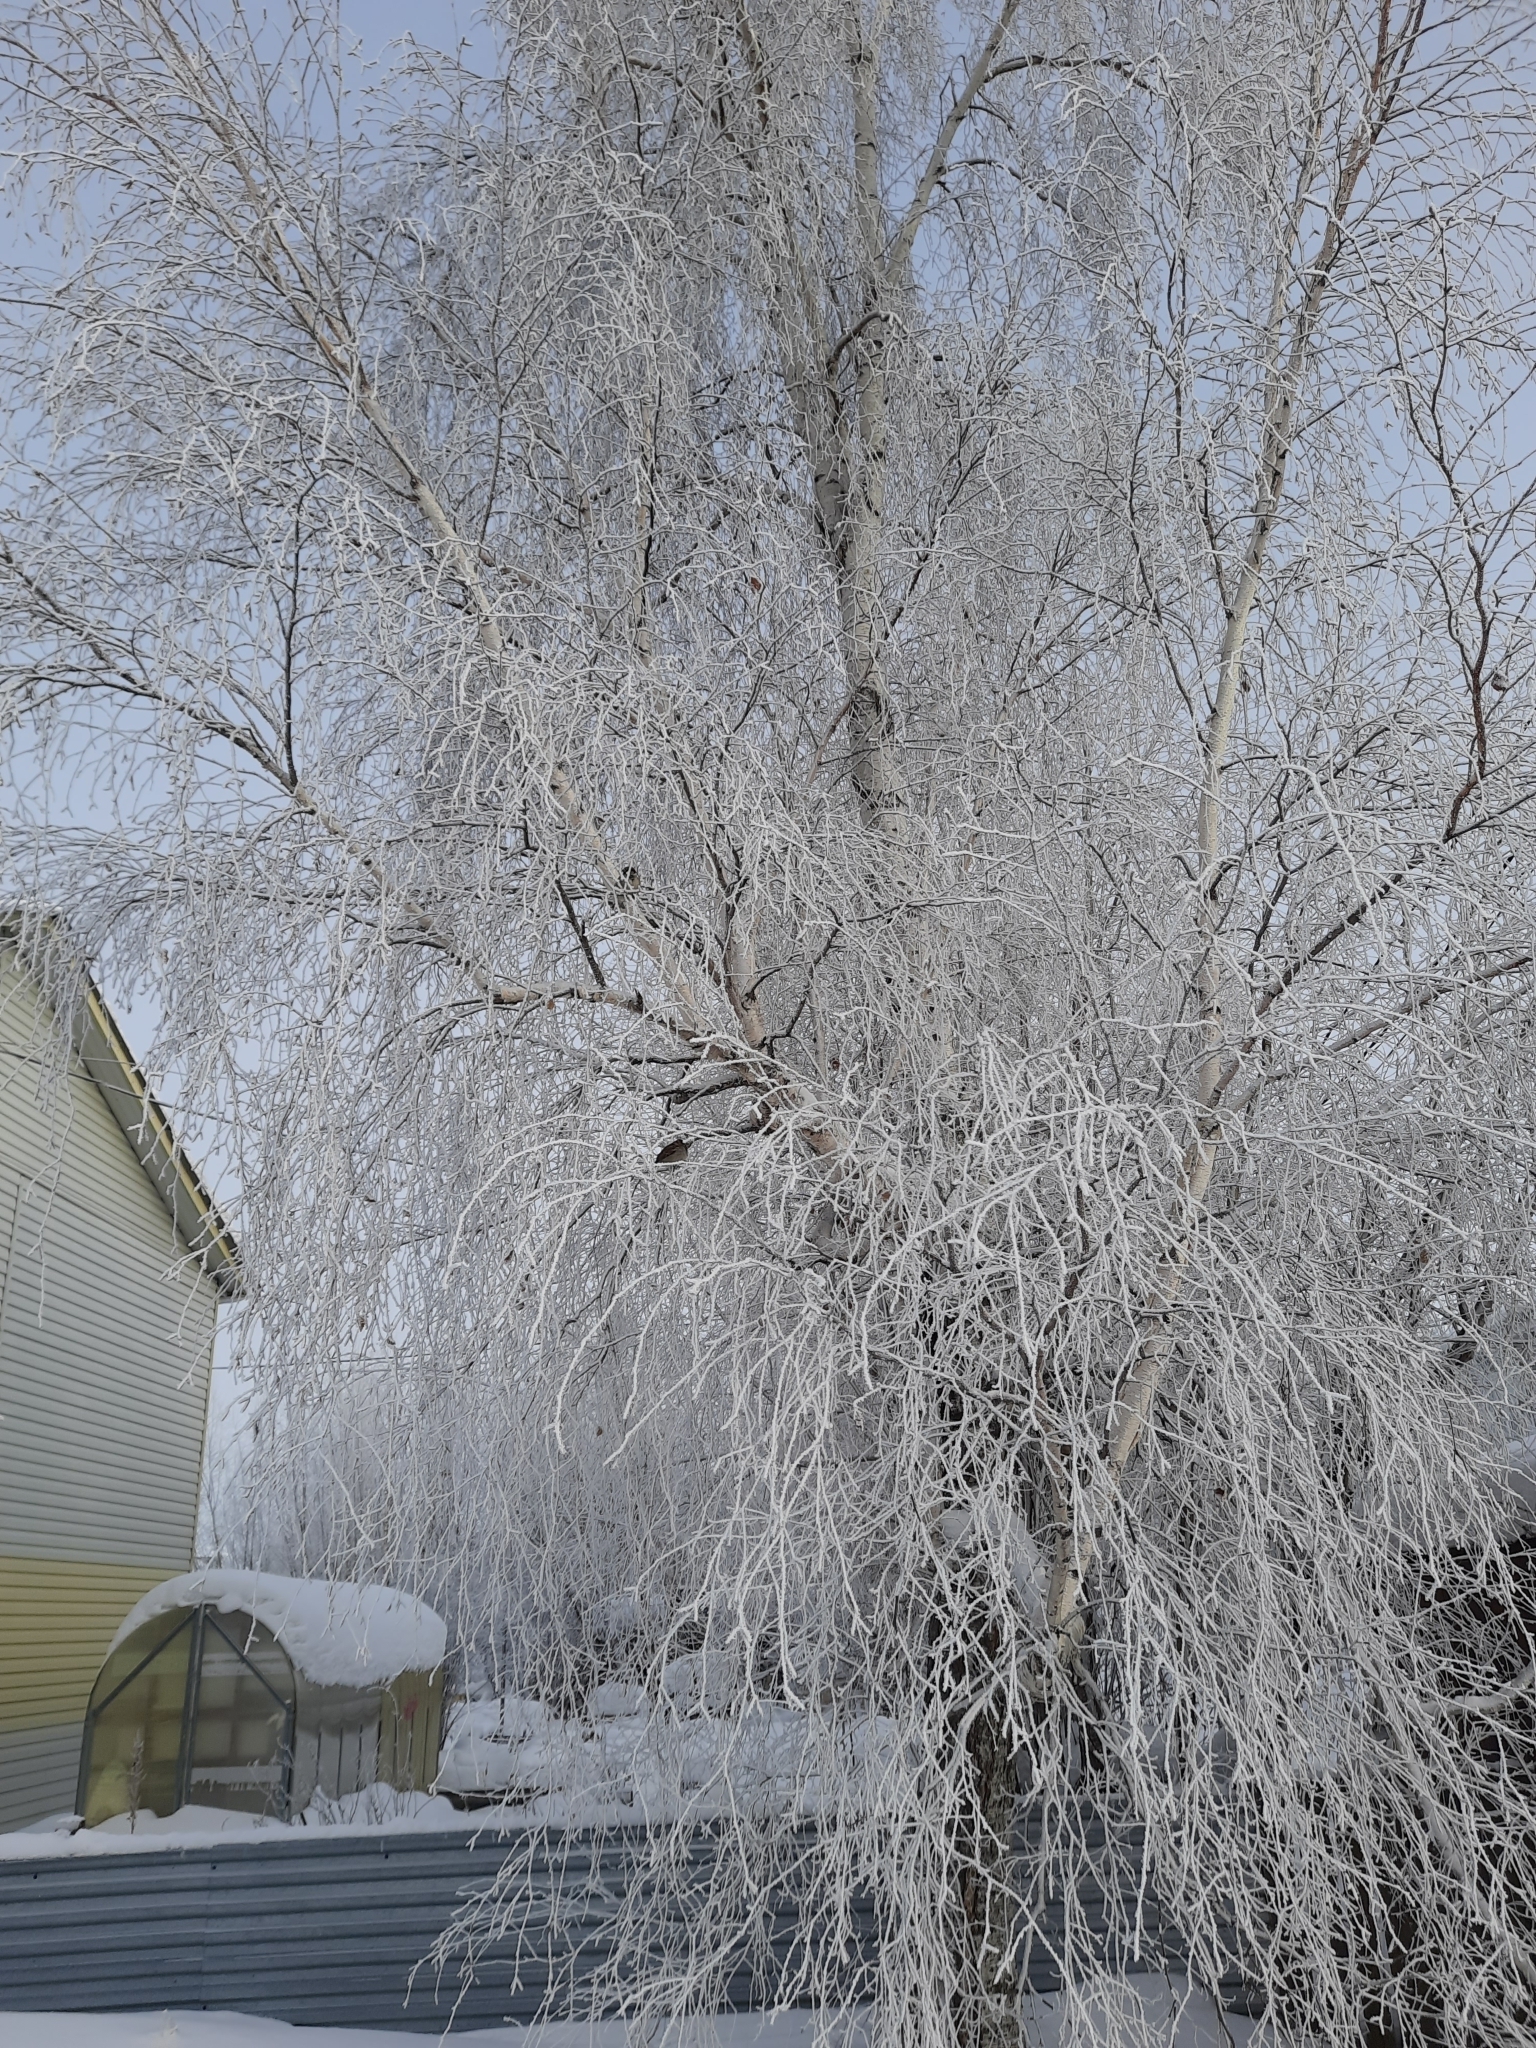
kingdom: Animalia
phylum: Chordata
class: Aves
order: Passeriformes
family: Passeridae
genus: Passer
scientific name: Passer domesticus
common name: House sparrow
